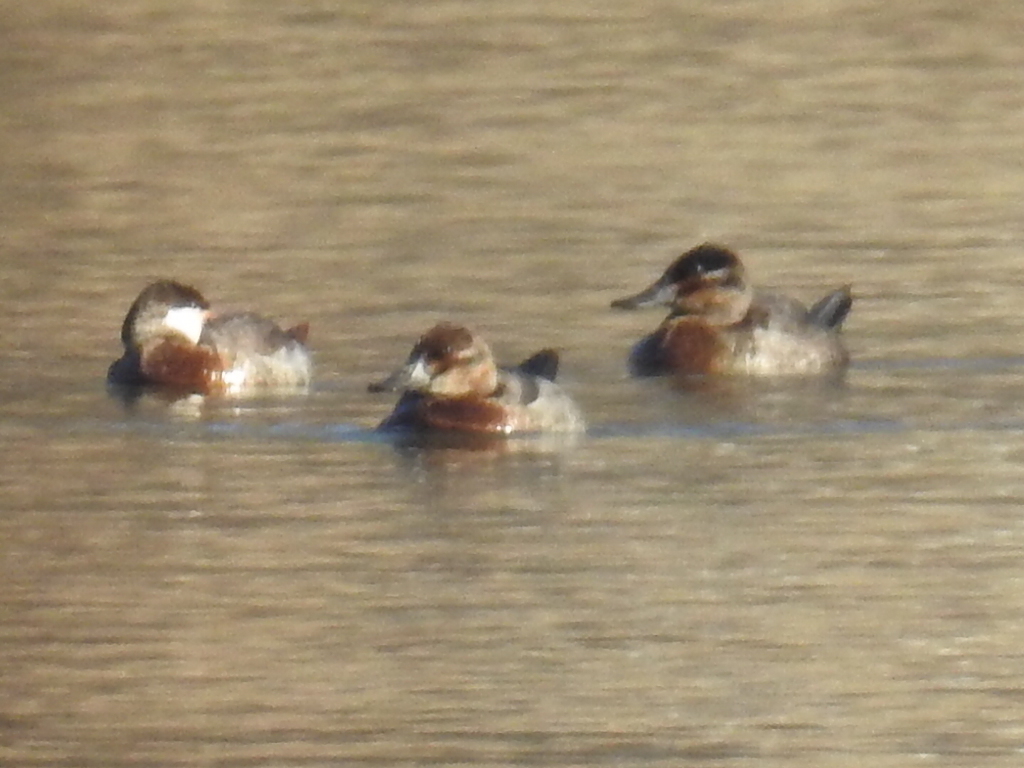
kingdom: Animalia
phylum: Chordata
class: Aves
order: Anseriformes
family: Anatidae
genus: Oxyura
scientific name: Oxyura jamaicensis
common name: Ruddy duck
